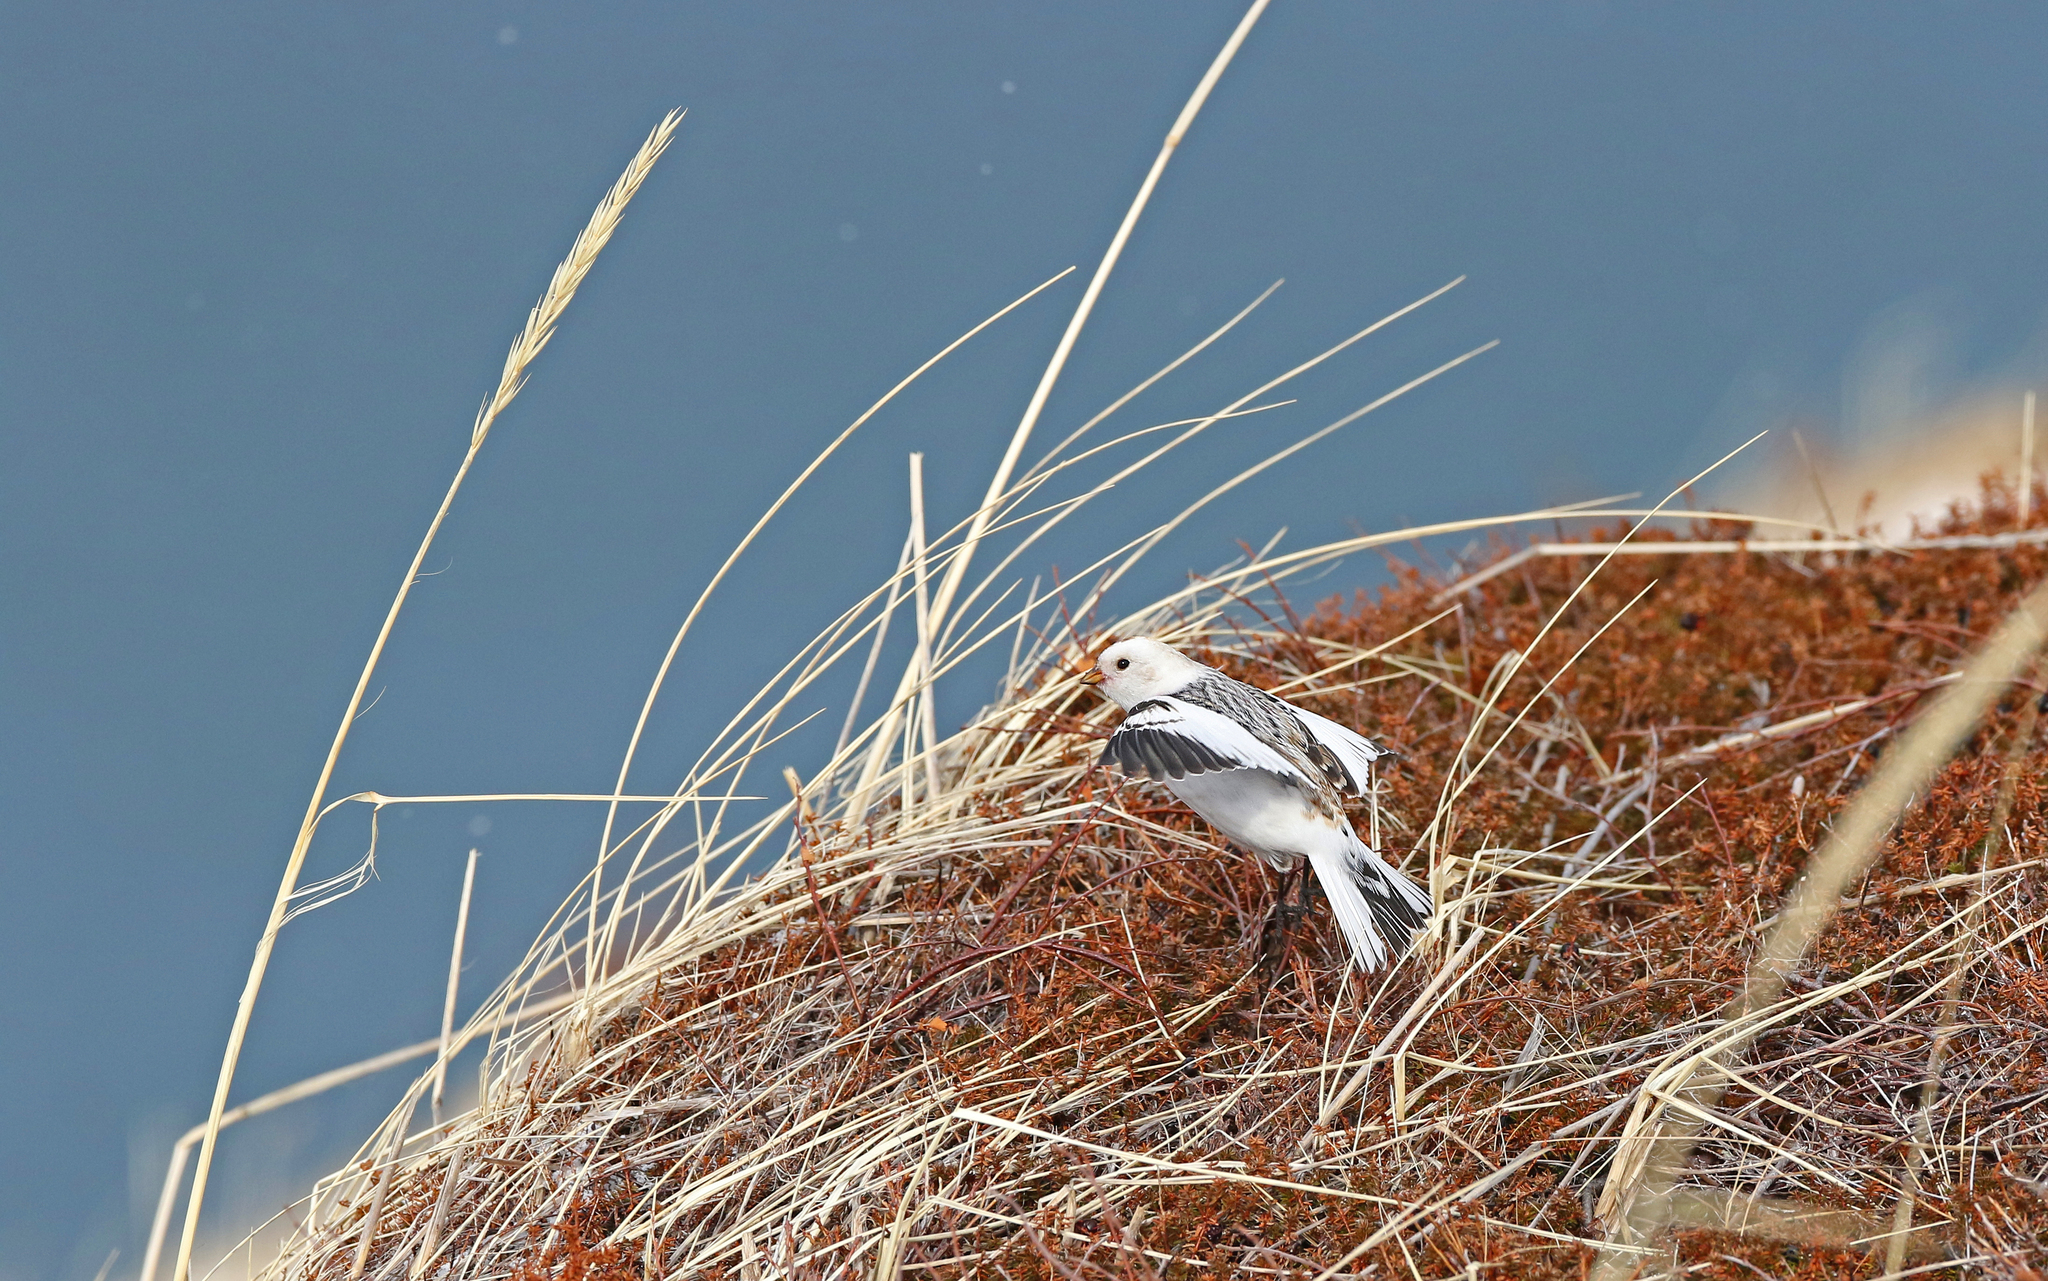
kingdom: Animalia
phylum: Chordata
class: Aves
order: Passeriformes
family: Calcariidae
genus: Plectrophenax
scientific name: Plectrophenax nivalis
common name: Snow bunting
